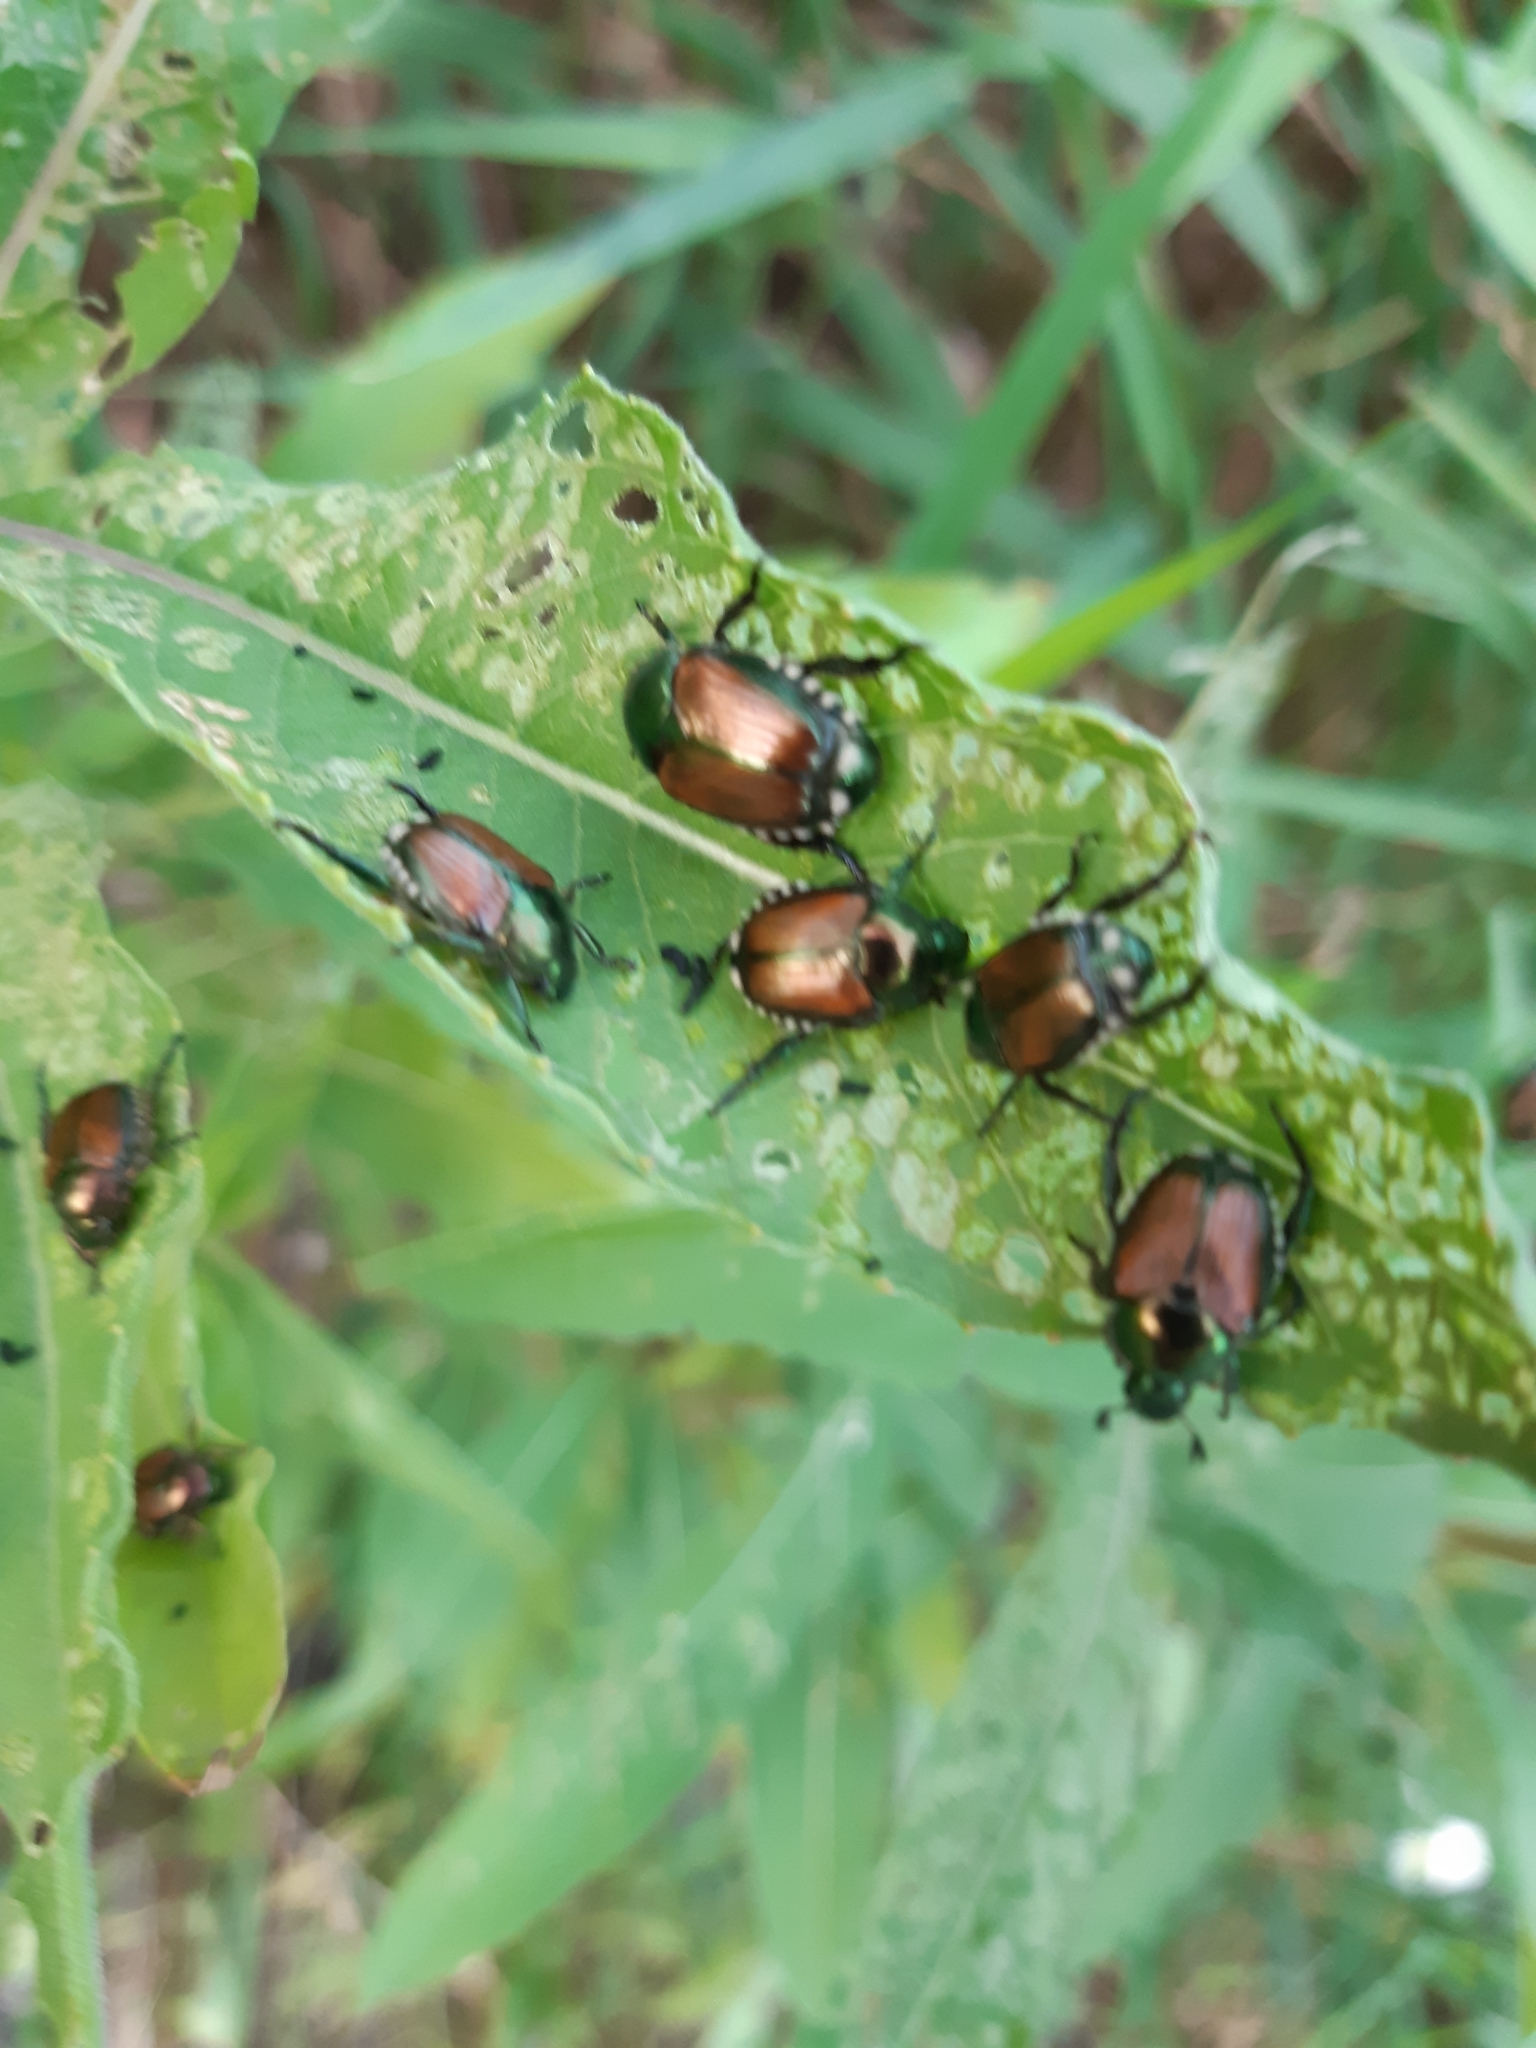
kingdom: Animalia
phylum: Arthropoda
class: Insecta
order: Coleoptera
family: Scarabaeidae
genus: Popillia
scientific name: Popillia japonica
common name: Japanese beetle
